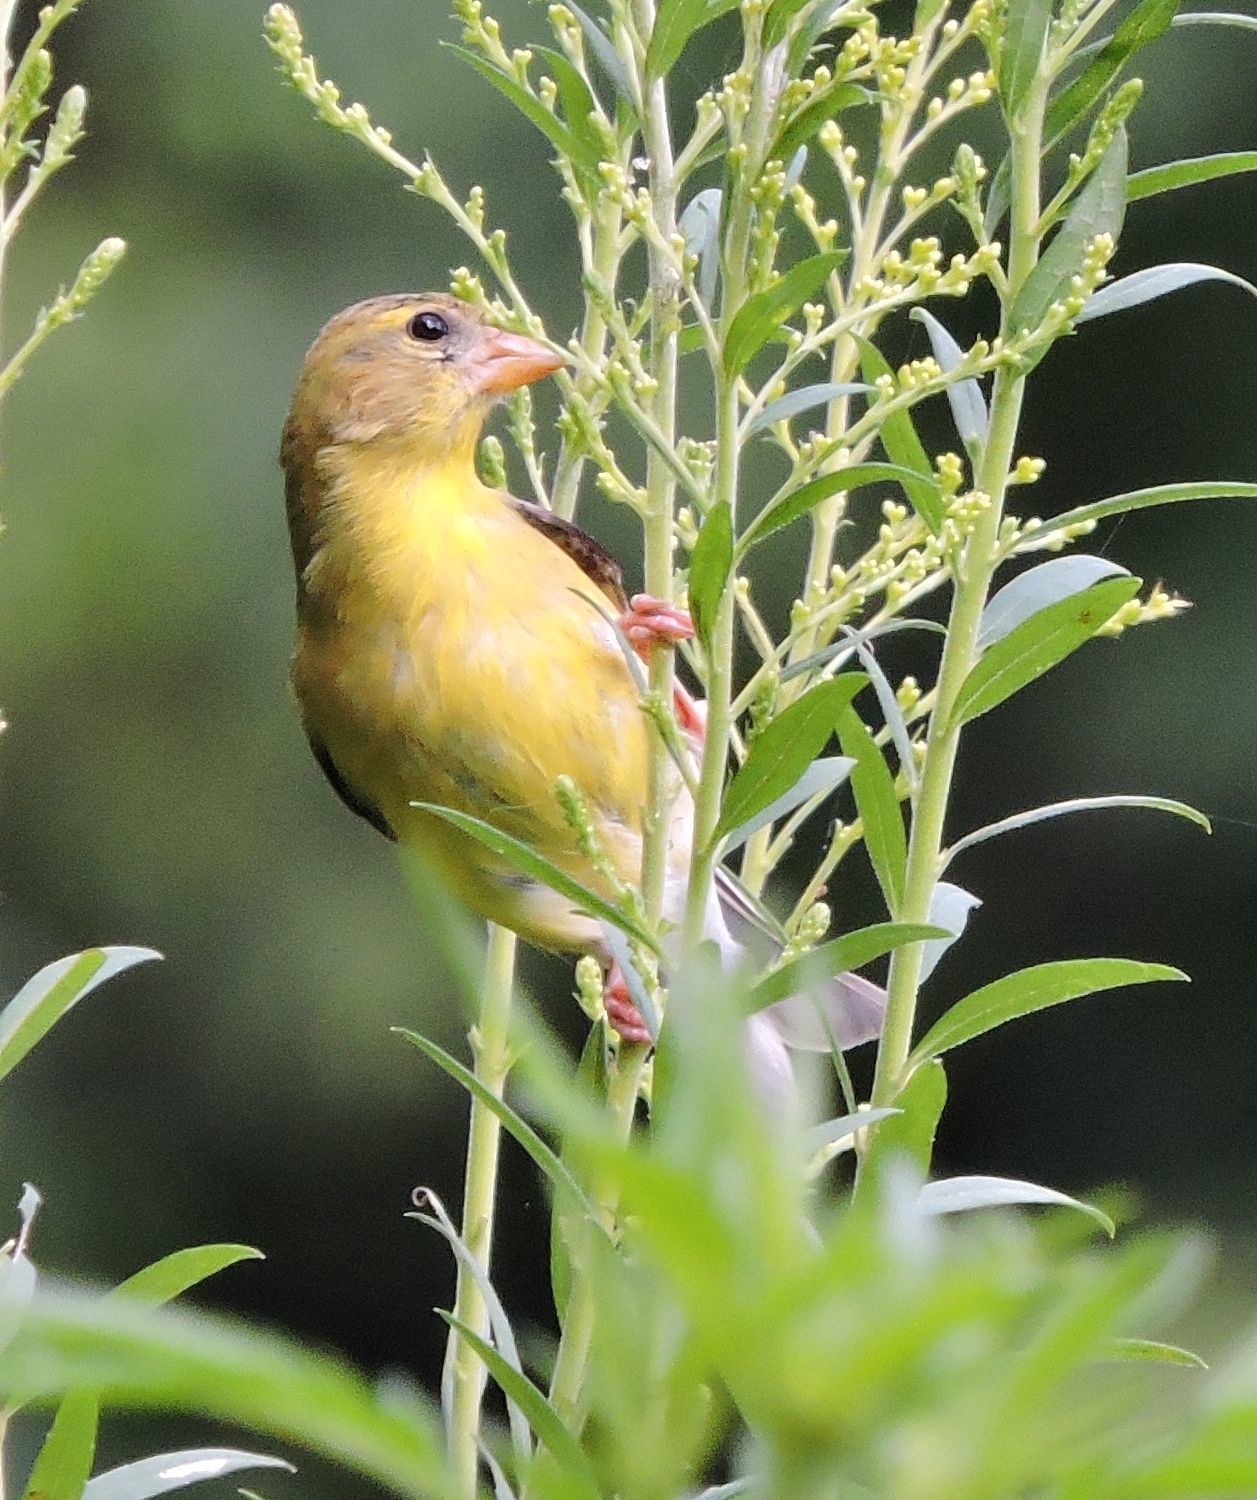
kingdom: Animalia
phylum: Chordata
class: Aves
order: Passeriformes
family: Fringillidae
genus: Spinus
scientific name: Spinus tristis
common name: American goldfinch
